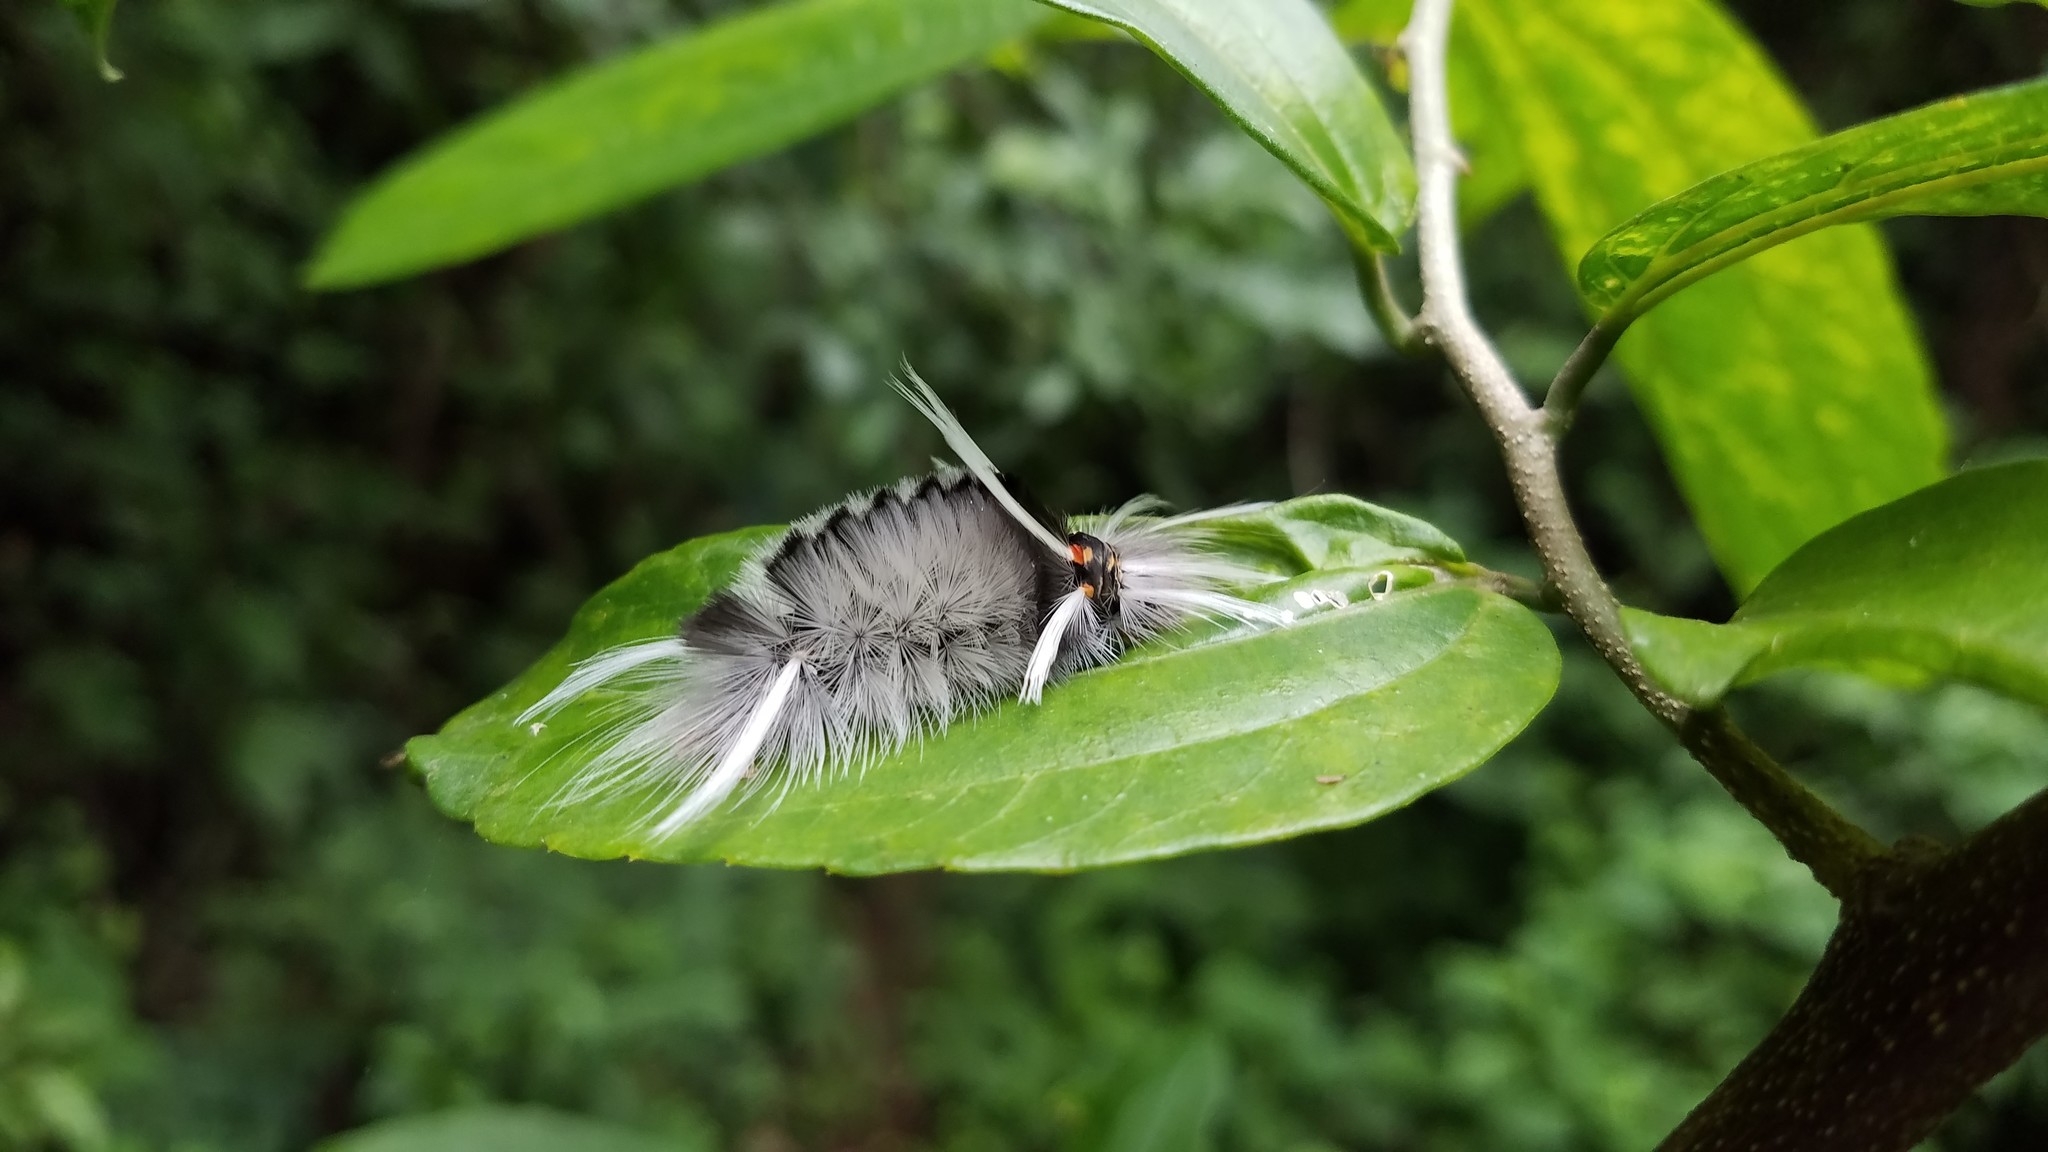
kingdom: Animalia
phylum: Arthropoda
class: Insecta
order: Lepidoptera
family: Erebidae
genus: Halysidota
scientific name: Halysidota schausi
